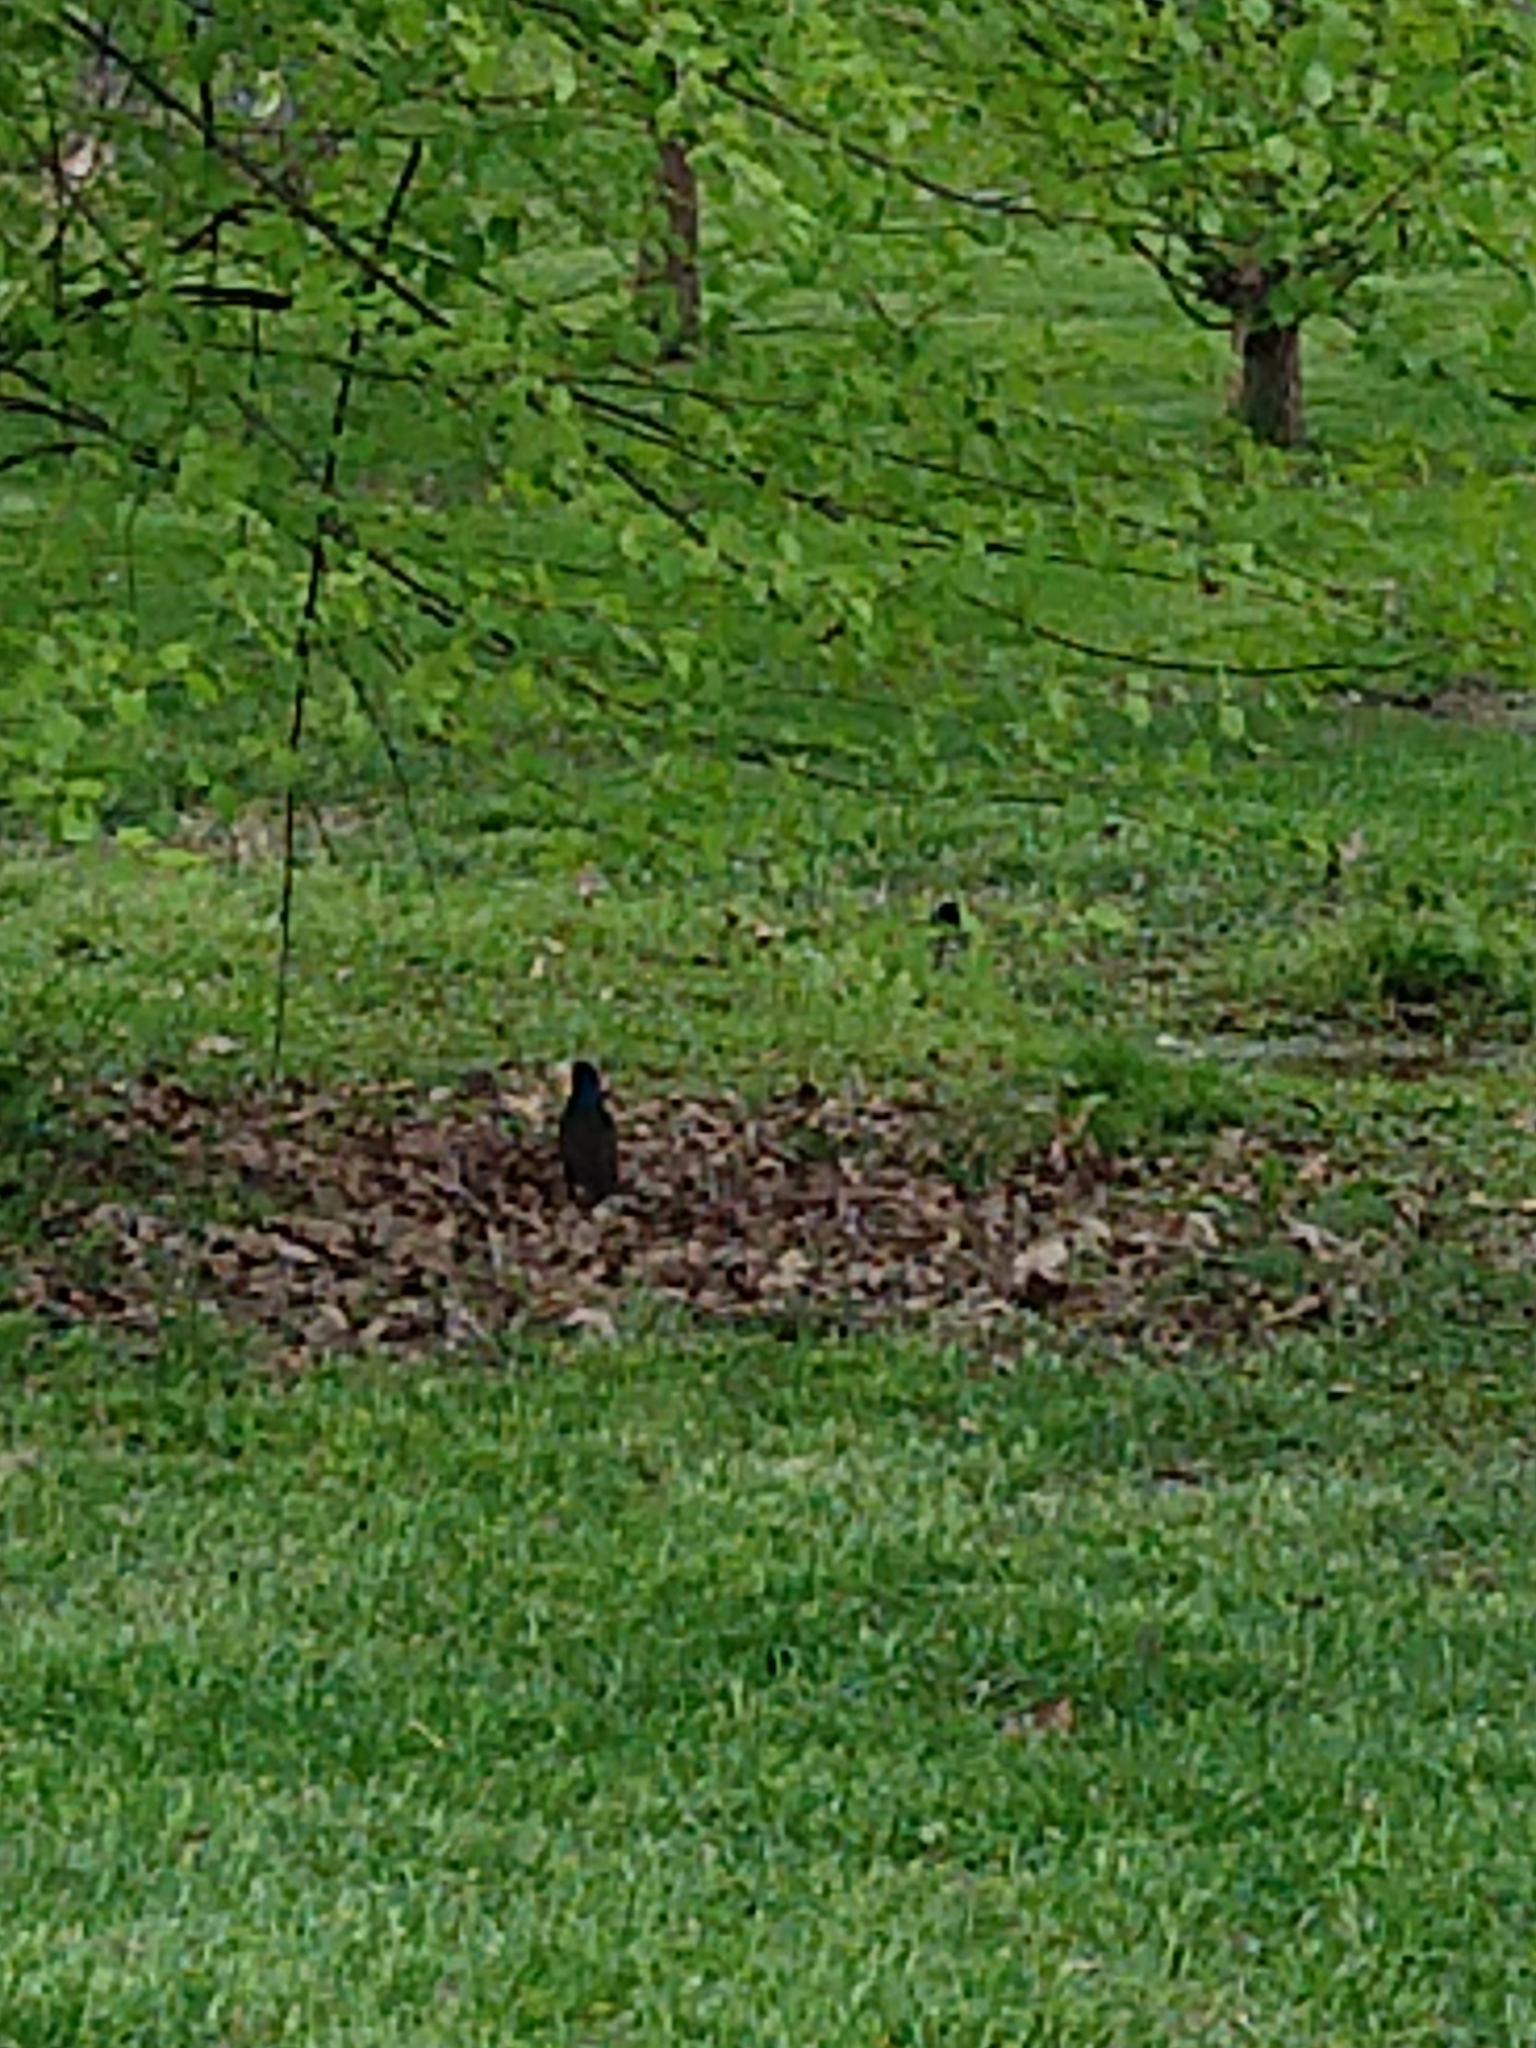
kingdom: Animalia
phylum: Chordata
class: Aves
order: Passeriformes
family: Icteridae
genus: Quiscalus
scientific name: Quiscalus quiscula
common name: Common grackle
